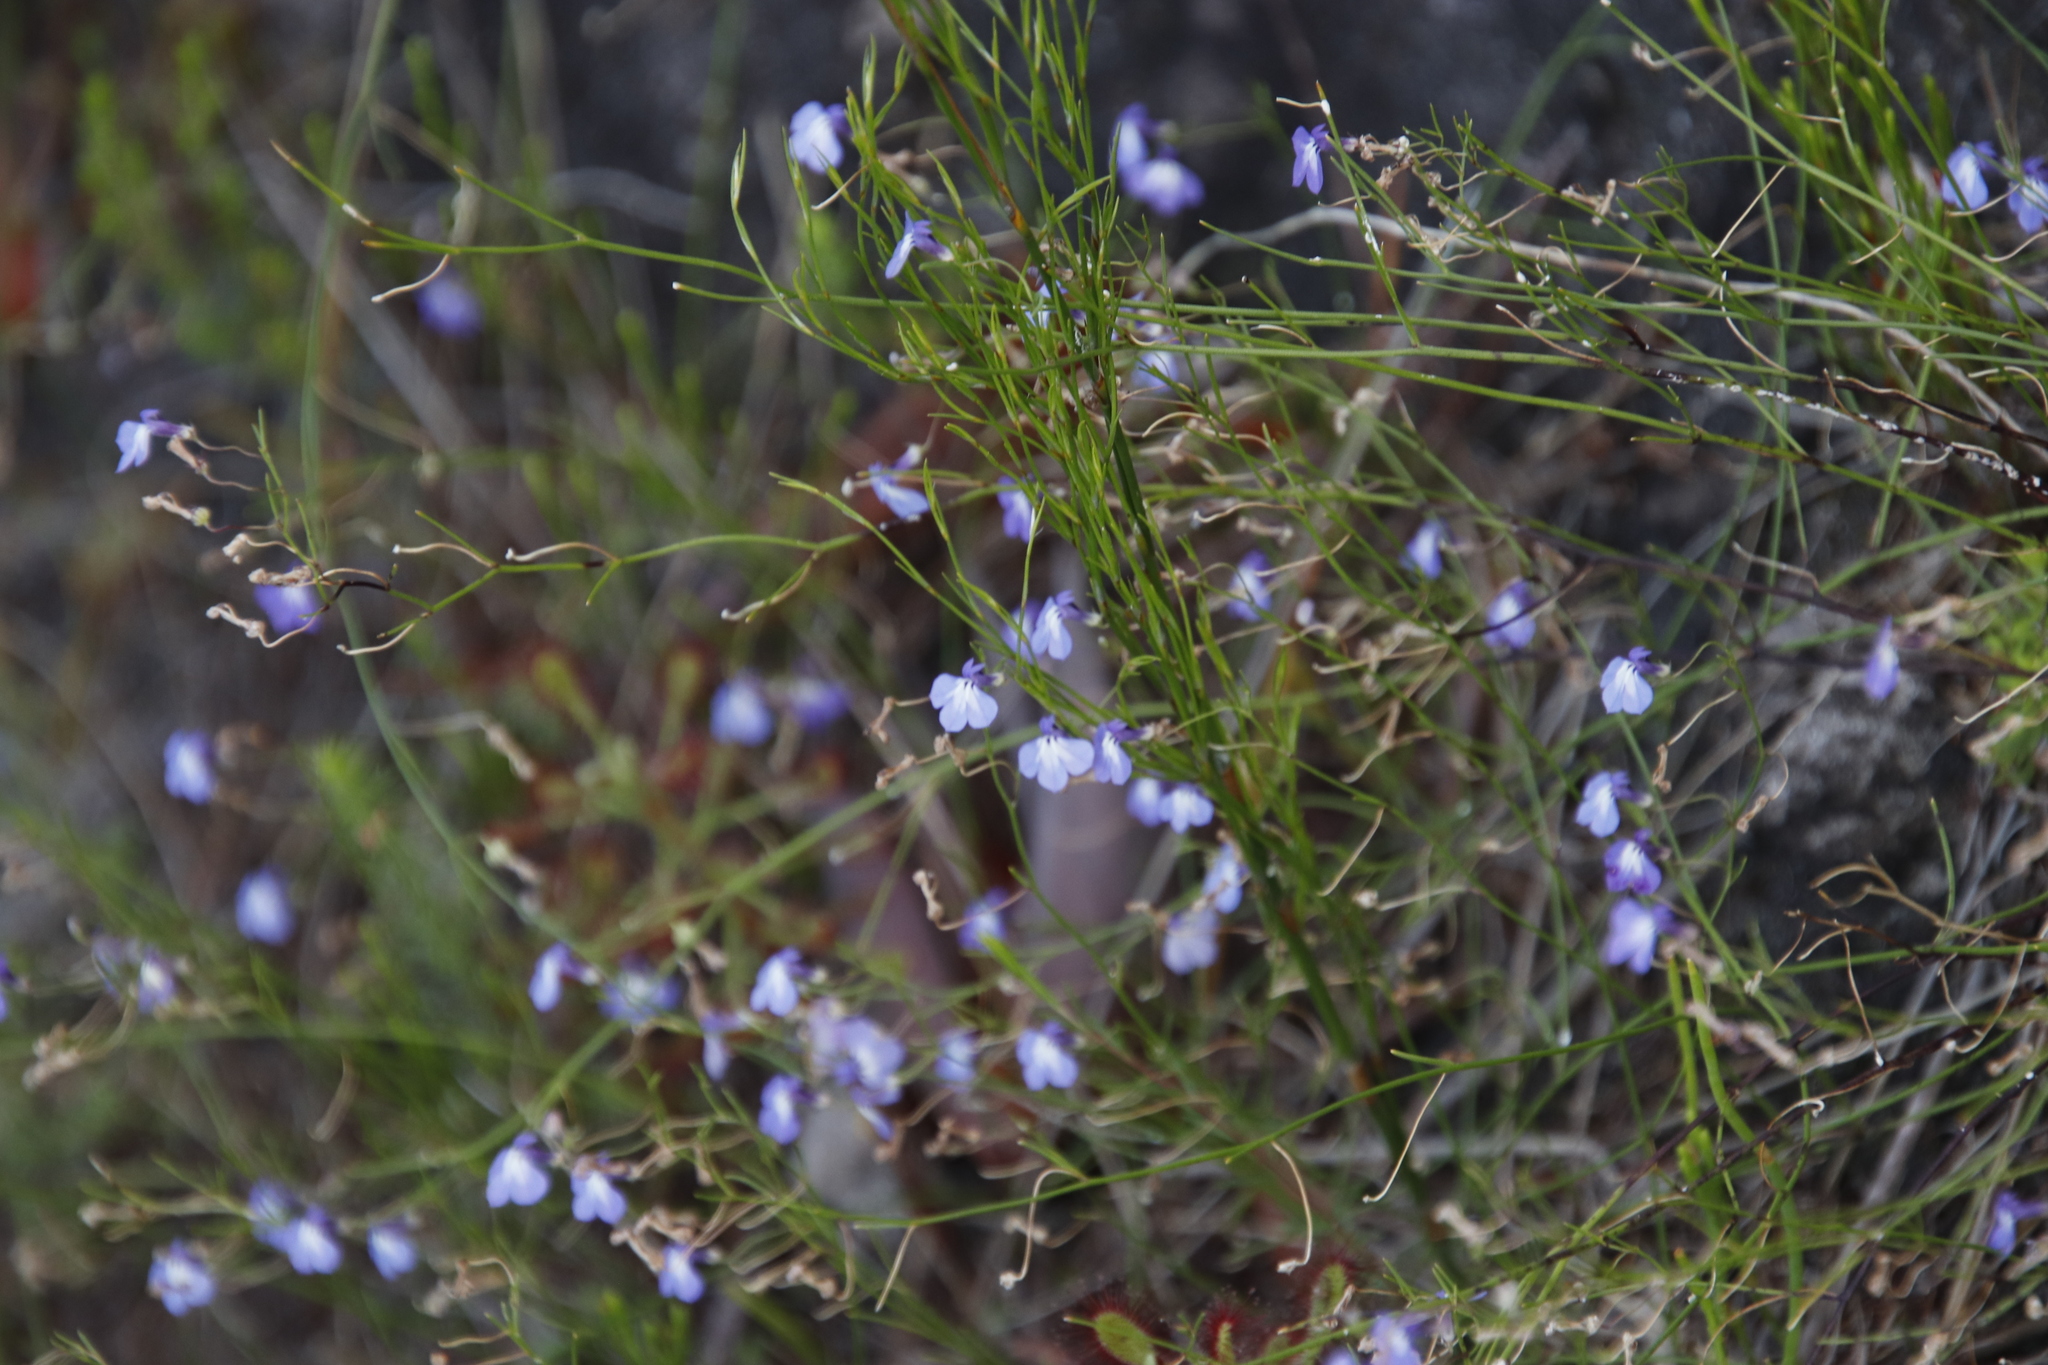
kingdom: Plantae
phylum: Tracheophyta
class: Magnoliopsida
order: Asterales
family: Campanulaceae
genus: Lobelia
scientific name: Lobelia setacea
